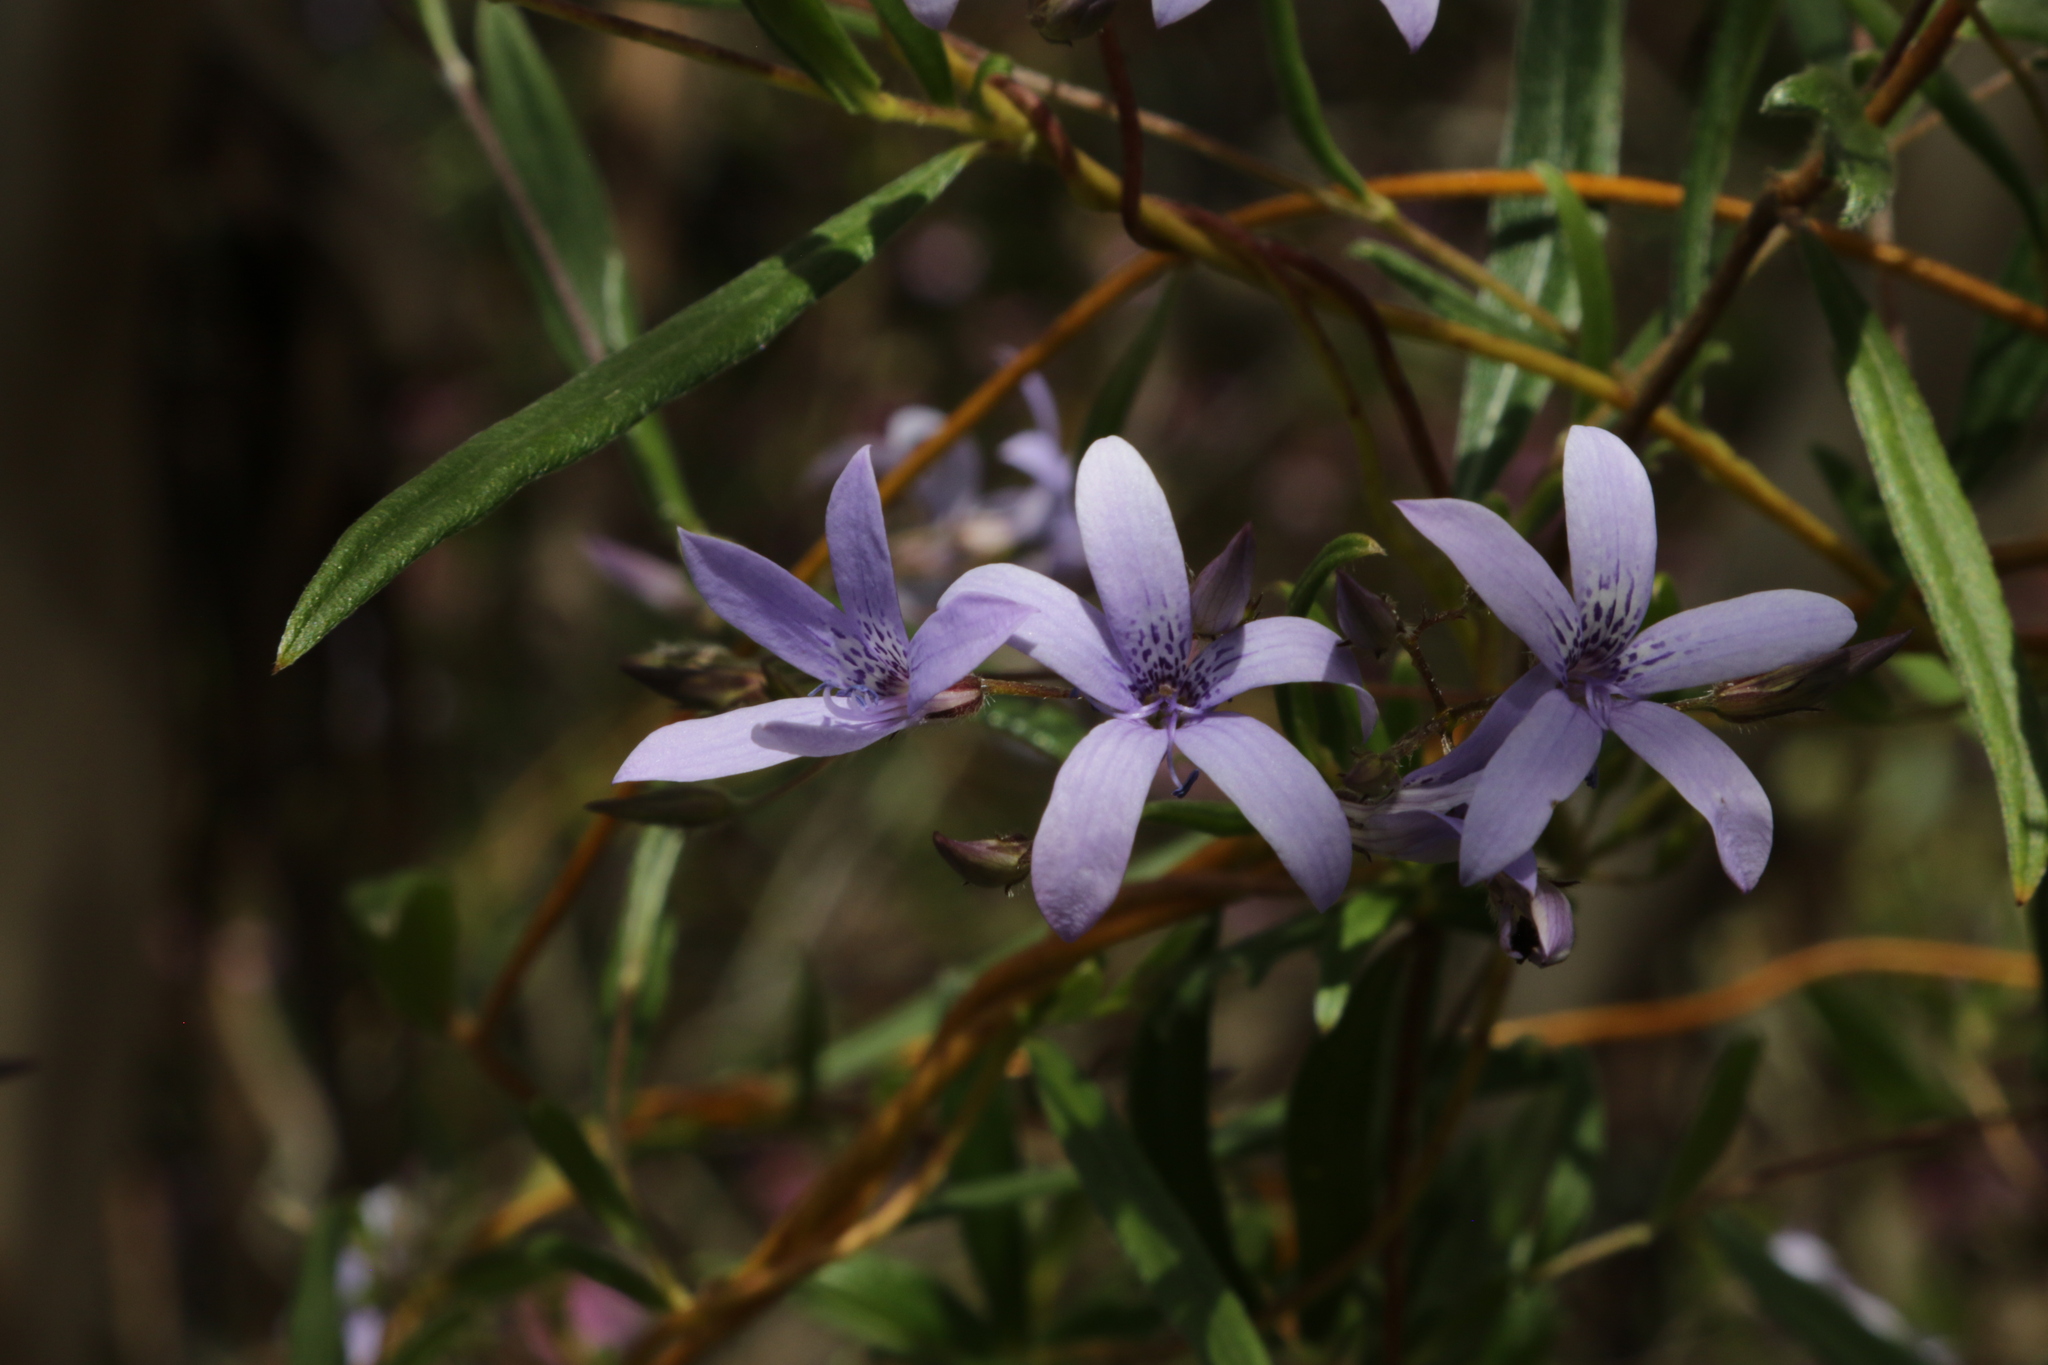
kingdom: Plantae
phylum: Tracheophyta
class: Magnoliopsida
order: Apiales
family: Pittosporaceae
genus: Marianthus
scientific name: Marianthus coeruleopunctatus
